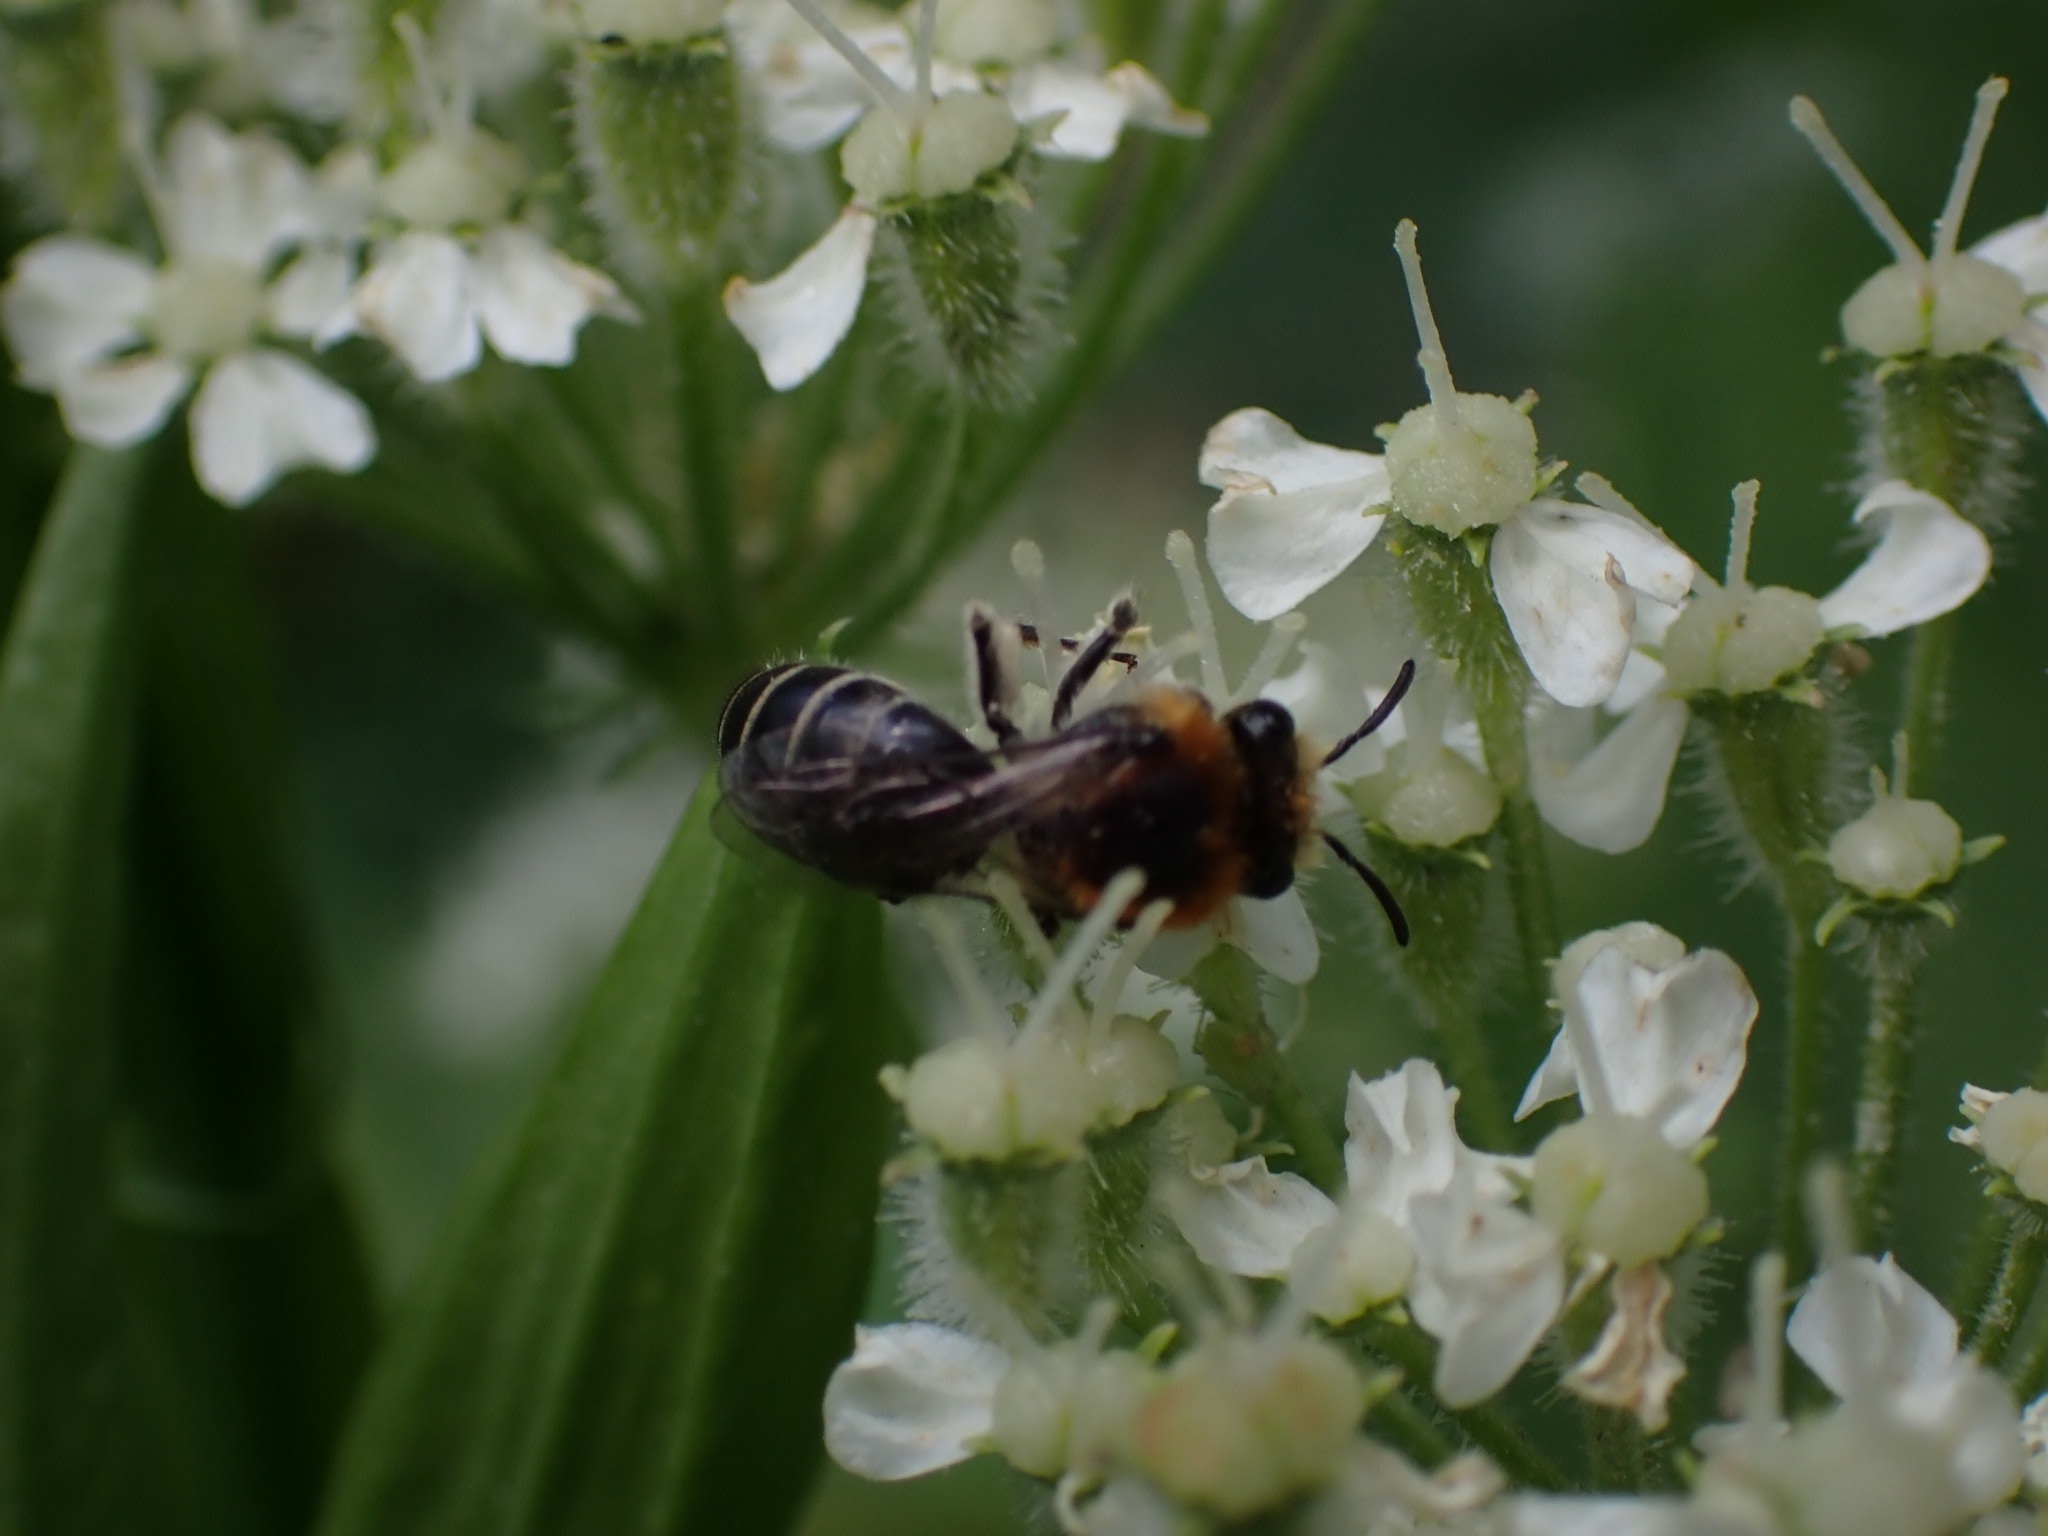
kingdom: Animalia
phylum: Arthropoda
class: Insecta
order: Hymenoptera
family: Vespidae
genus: Dolichovespula
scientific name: Dolichovespula sylvestris
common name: Tree wasp
